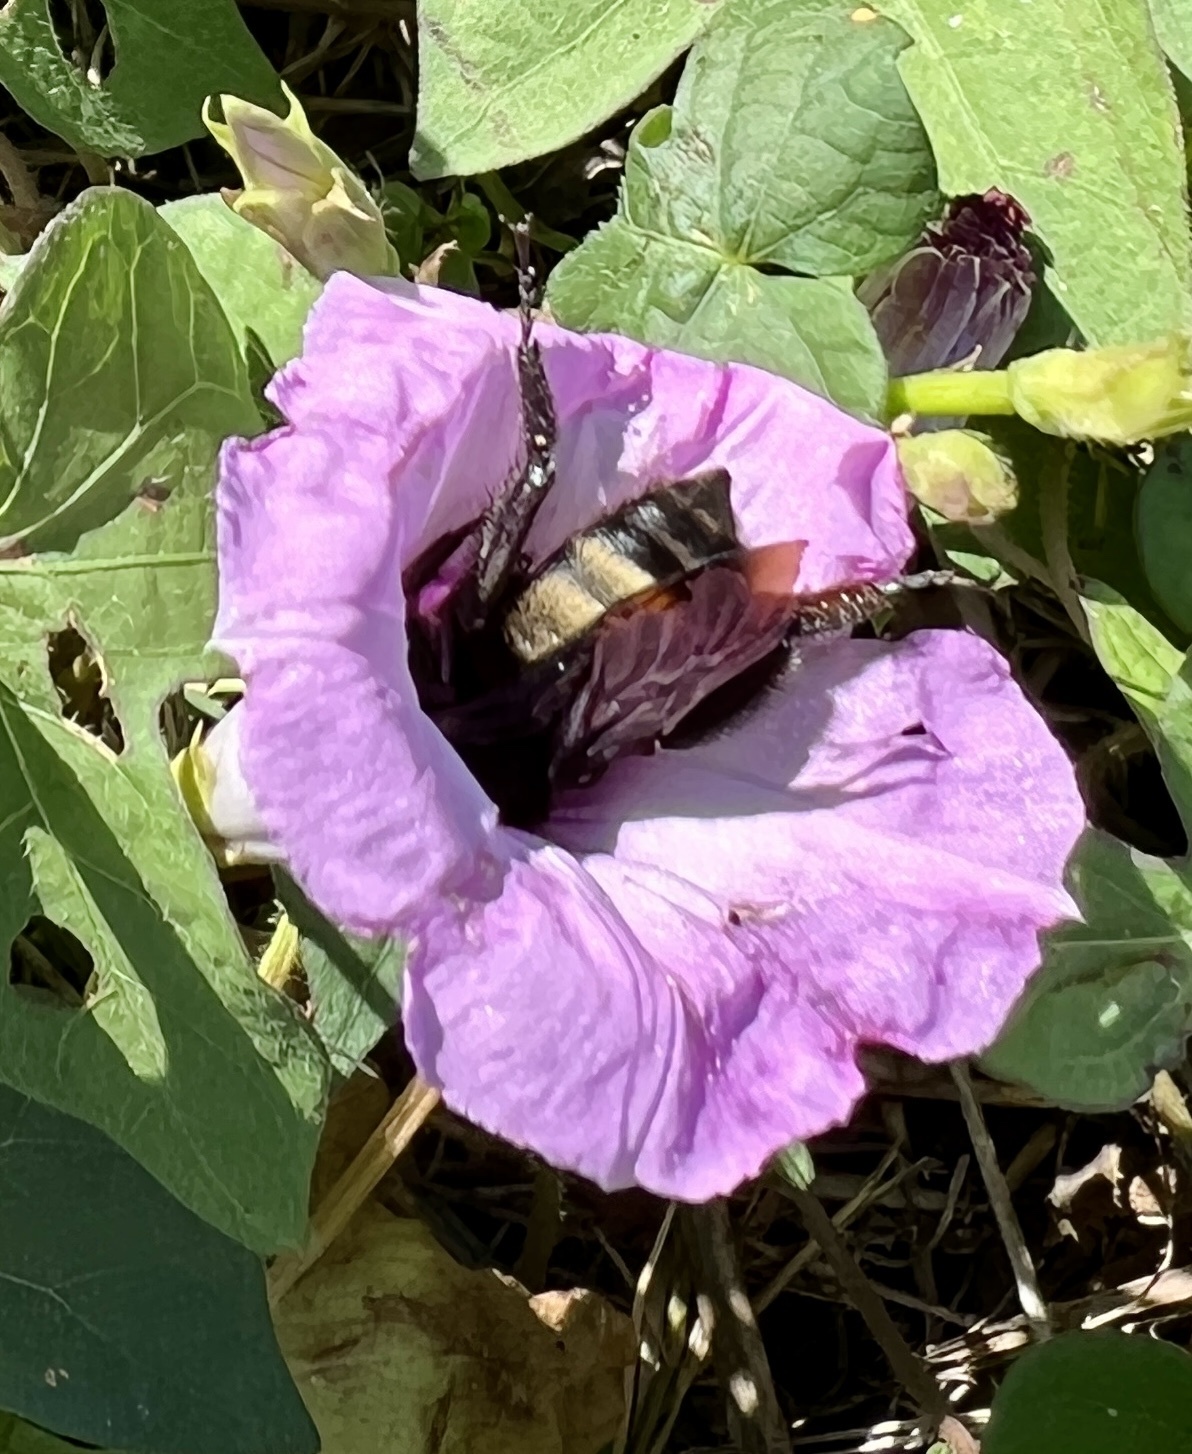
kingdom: Animalia
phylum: Arthropoda
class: Insecta
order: Hymenoptera
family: Apidae
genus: Bombus
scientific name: Bombus pensylvanicus
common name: Bumble bee
